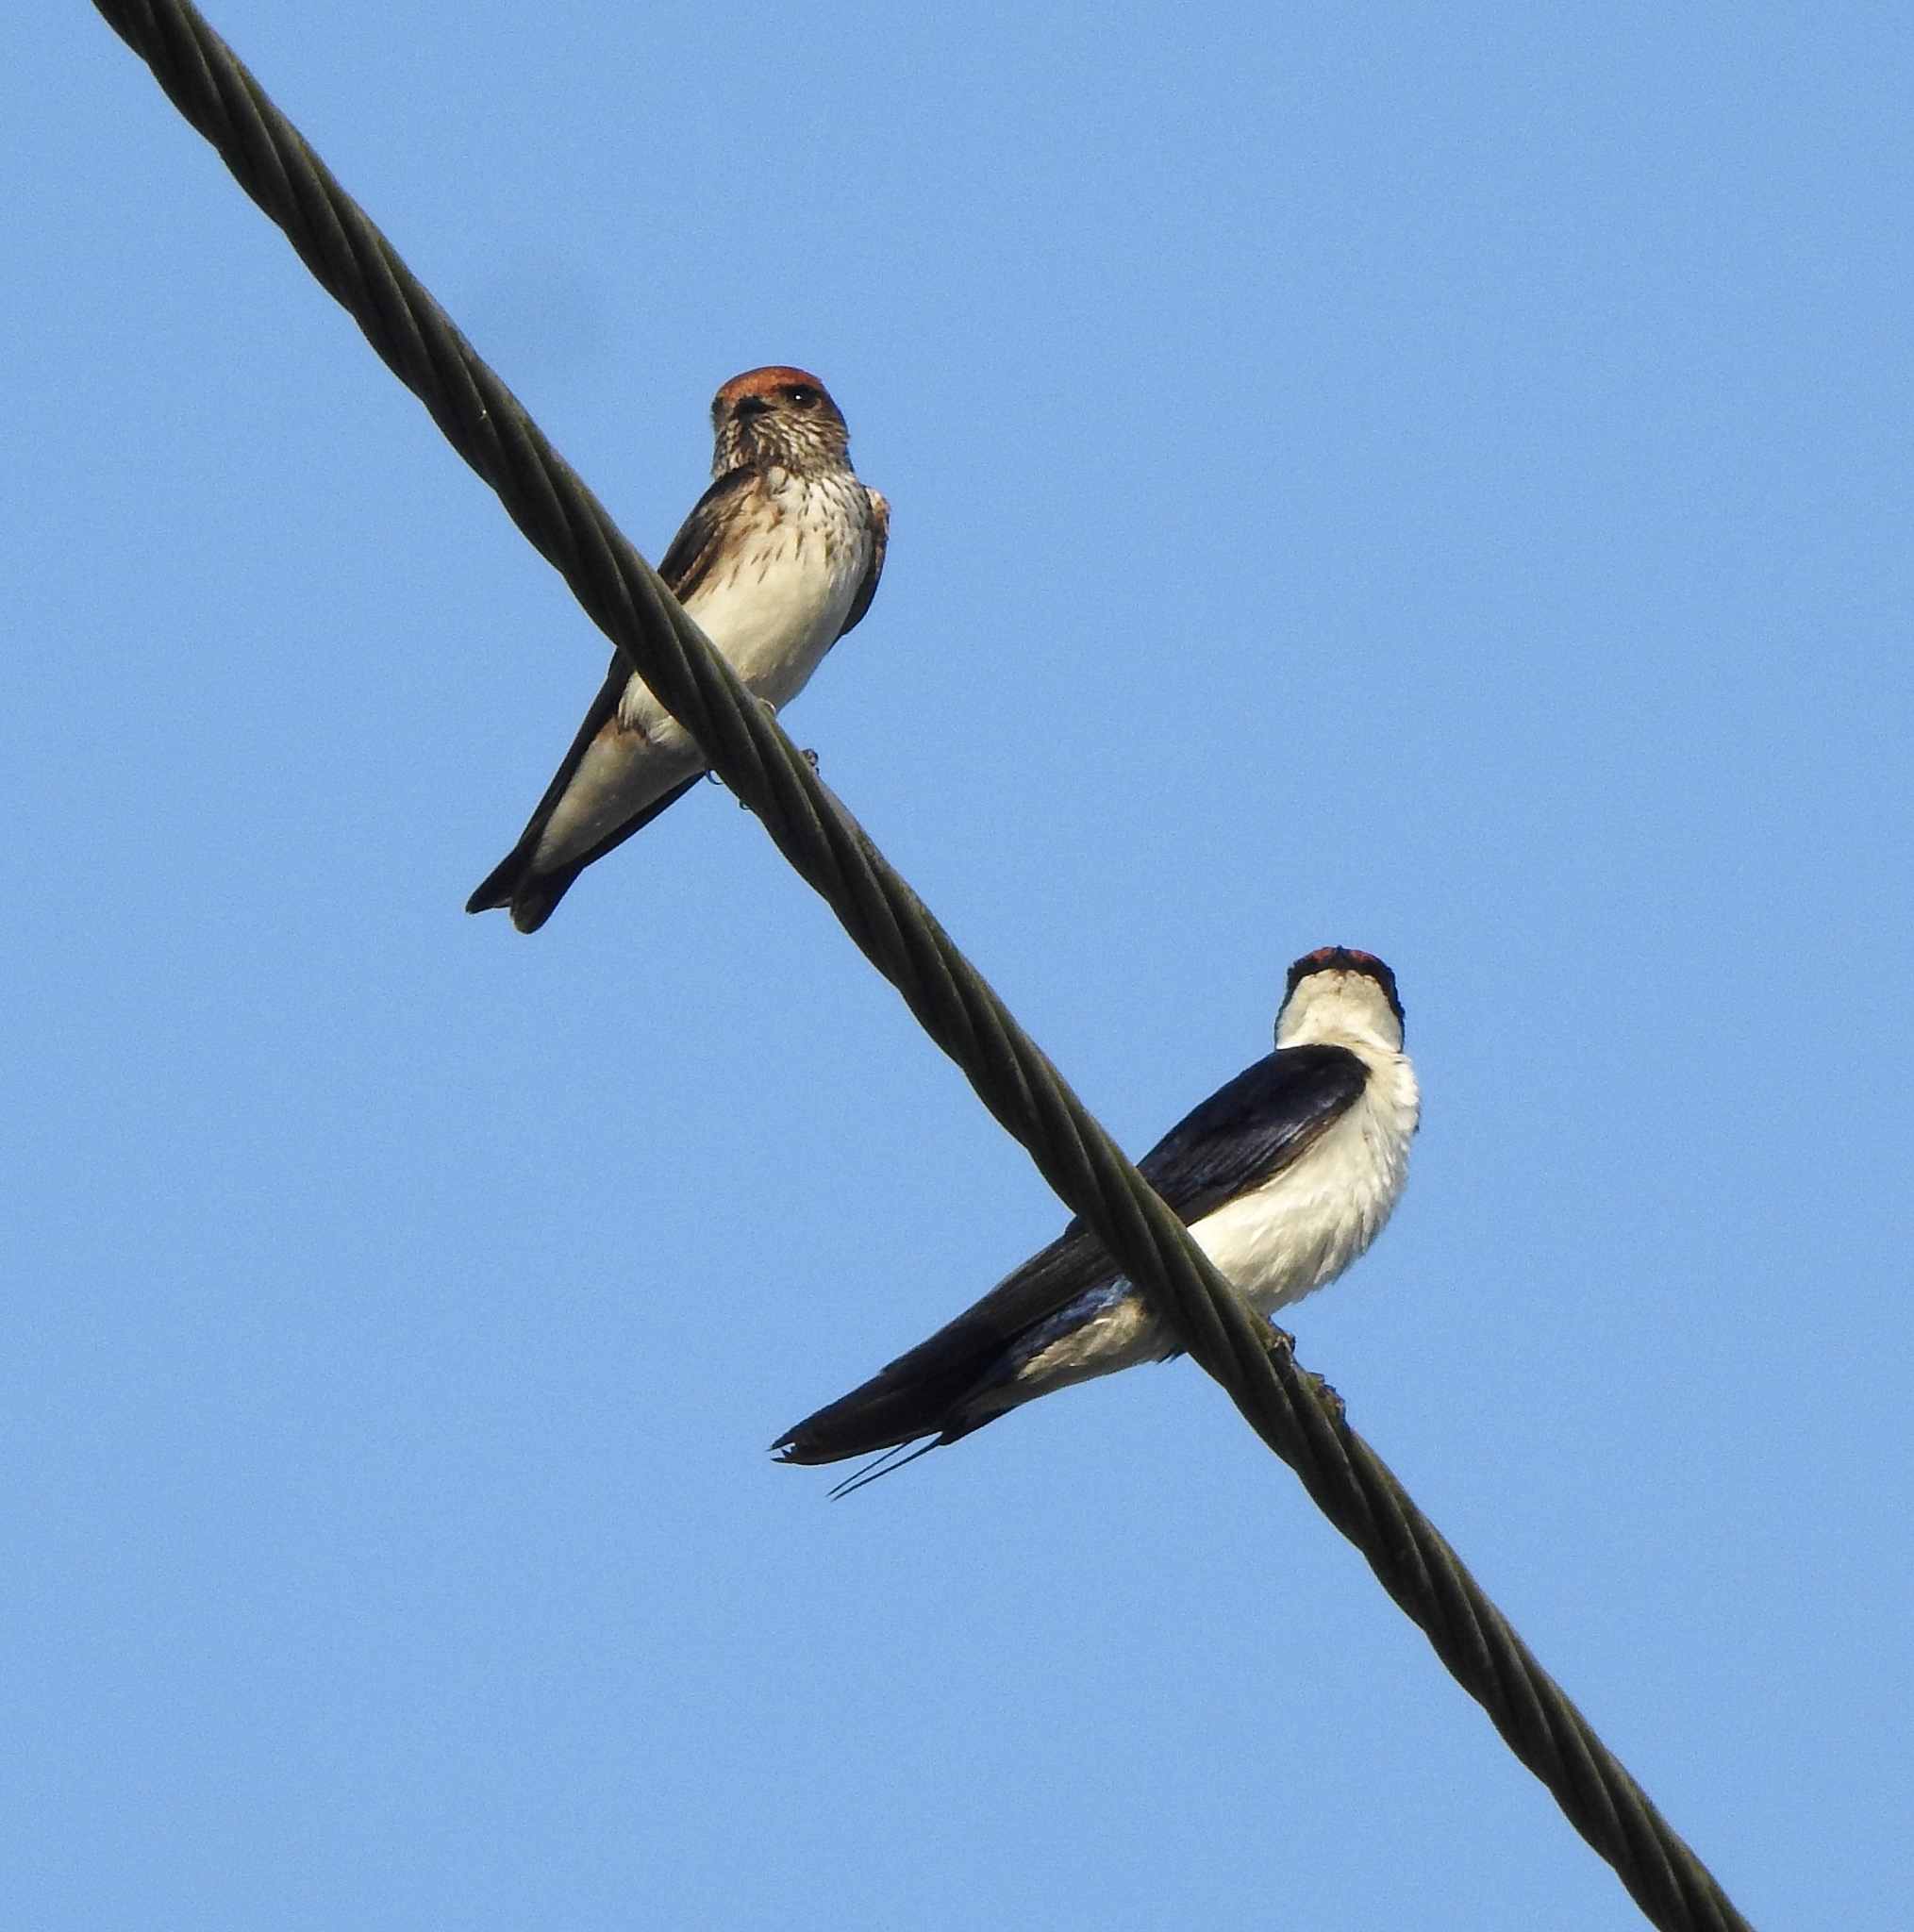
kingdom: Animalia
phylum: Chordata
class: Aves
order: Passeriformes
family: Hirundinidae
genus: Hirundo
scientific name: Hirundo smithii
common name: Wire-tailed swallow
